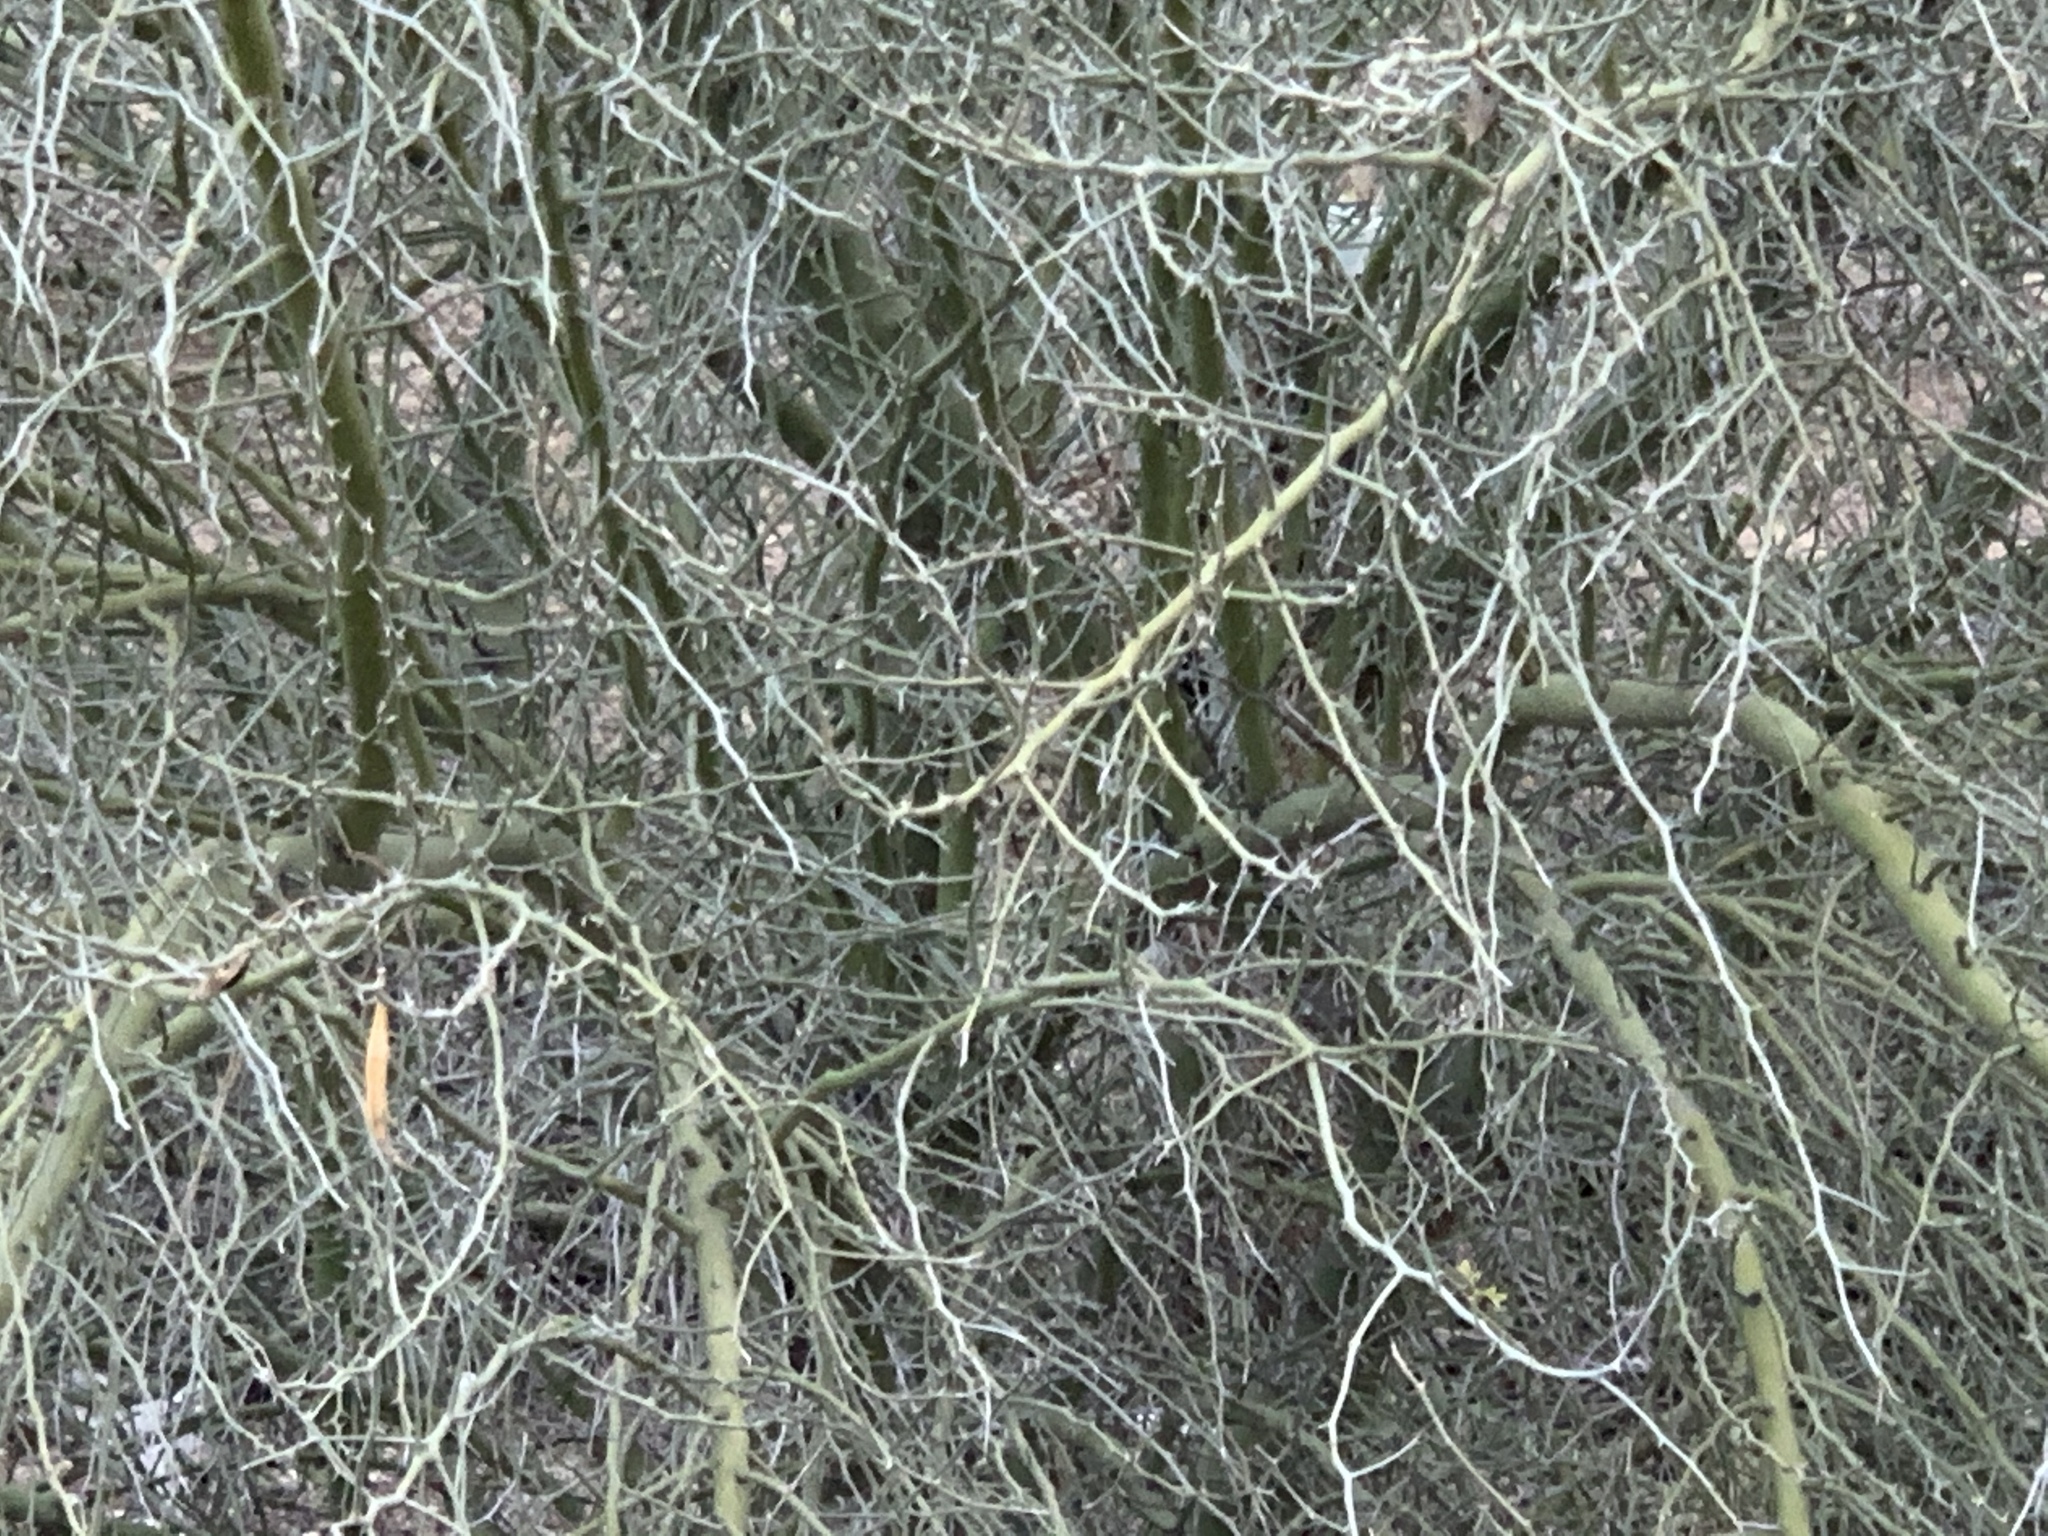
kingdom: Plantae
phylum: Tracheophyta
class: Magnoliopsida
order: Fabales
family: Fabaceae
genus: Parkinsonia
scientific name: Parkinsonia florida
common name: Blue paloverde
